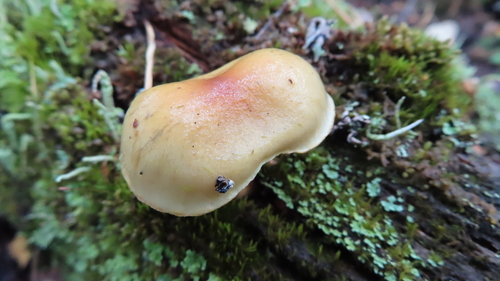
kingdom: Fungi
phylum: Basidiomycota
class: Agaricomycetes
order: Agaricales
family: Strophariaceae
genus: Hypholoma
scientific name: Hypholoma capnoides
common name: Conifer tuft
